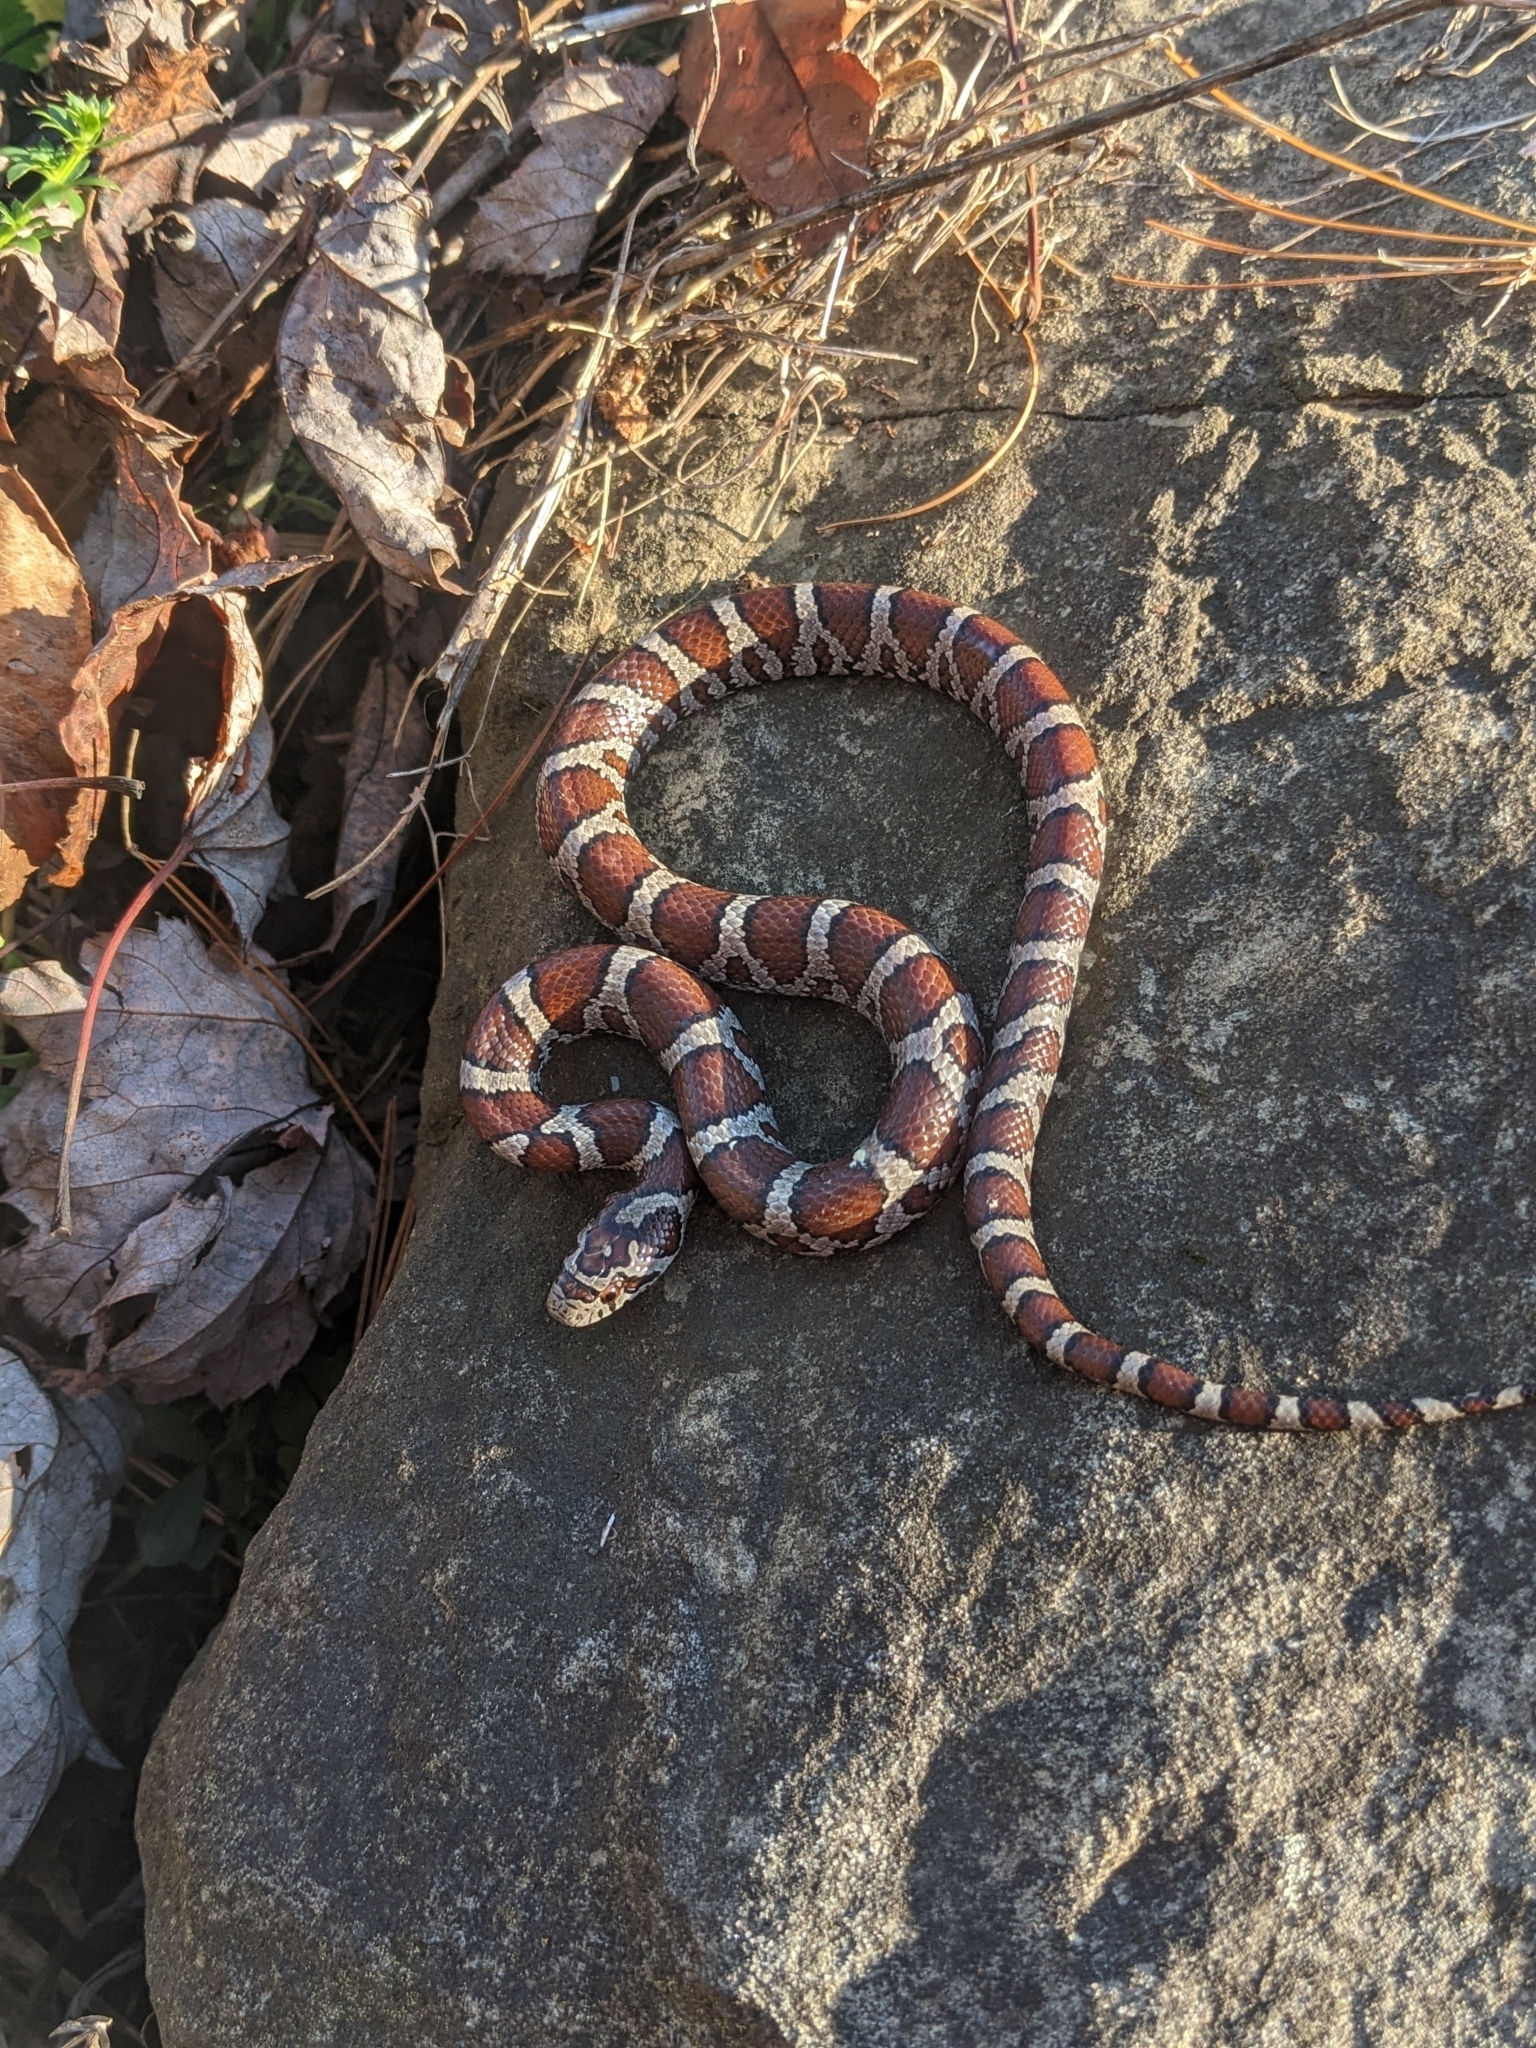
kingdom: Animalia
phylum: Chordata
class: Squamata
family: Colubridae
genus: Lampropeltis
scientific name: Lampropeltis triangulum
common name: Eastern milksnake
